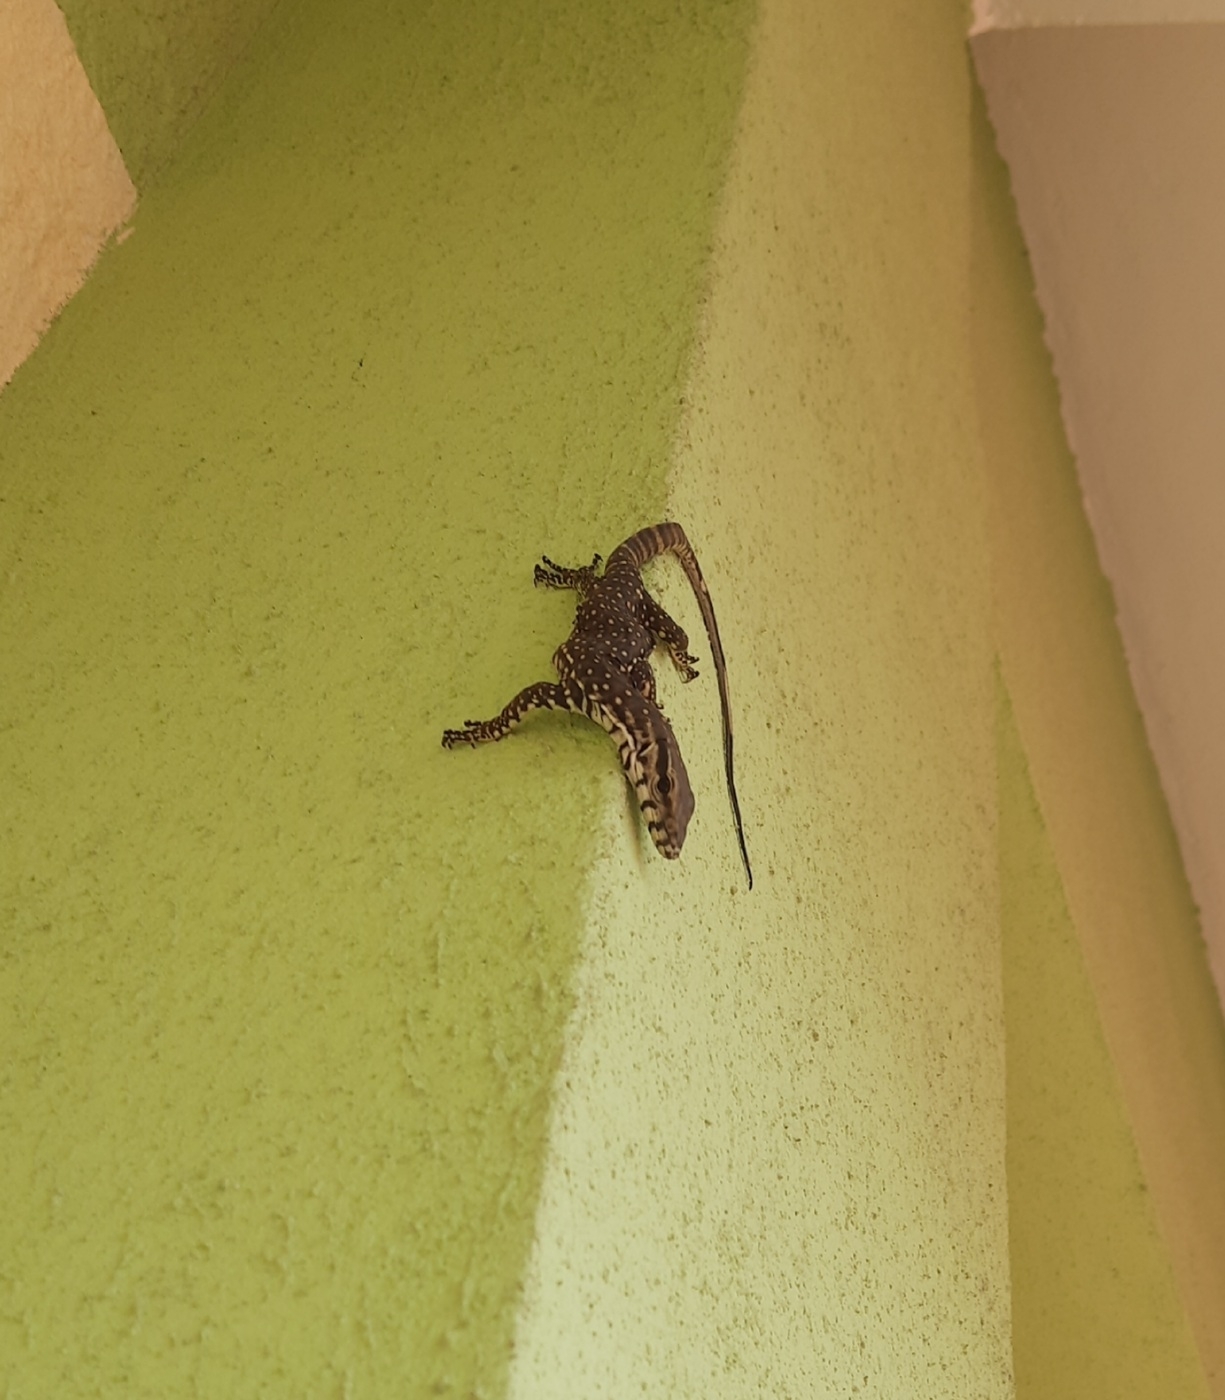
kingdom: Animalia
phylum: Chordata
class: Squamata
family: Varanidae
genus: Varanus
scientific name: Varanus bengalensis
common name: Bengal monitor
